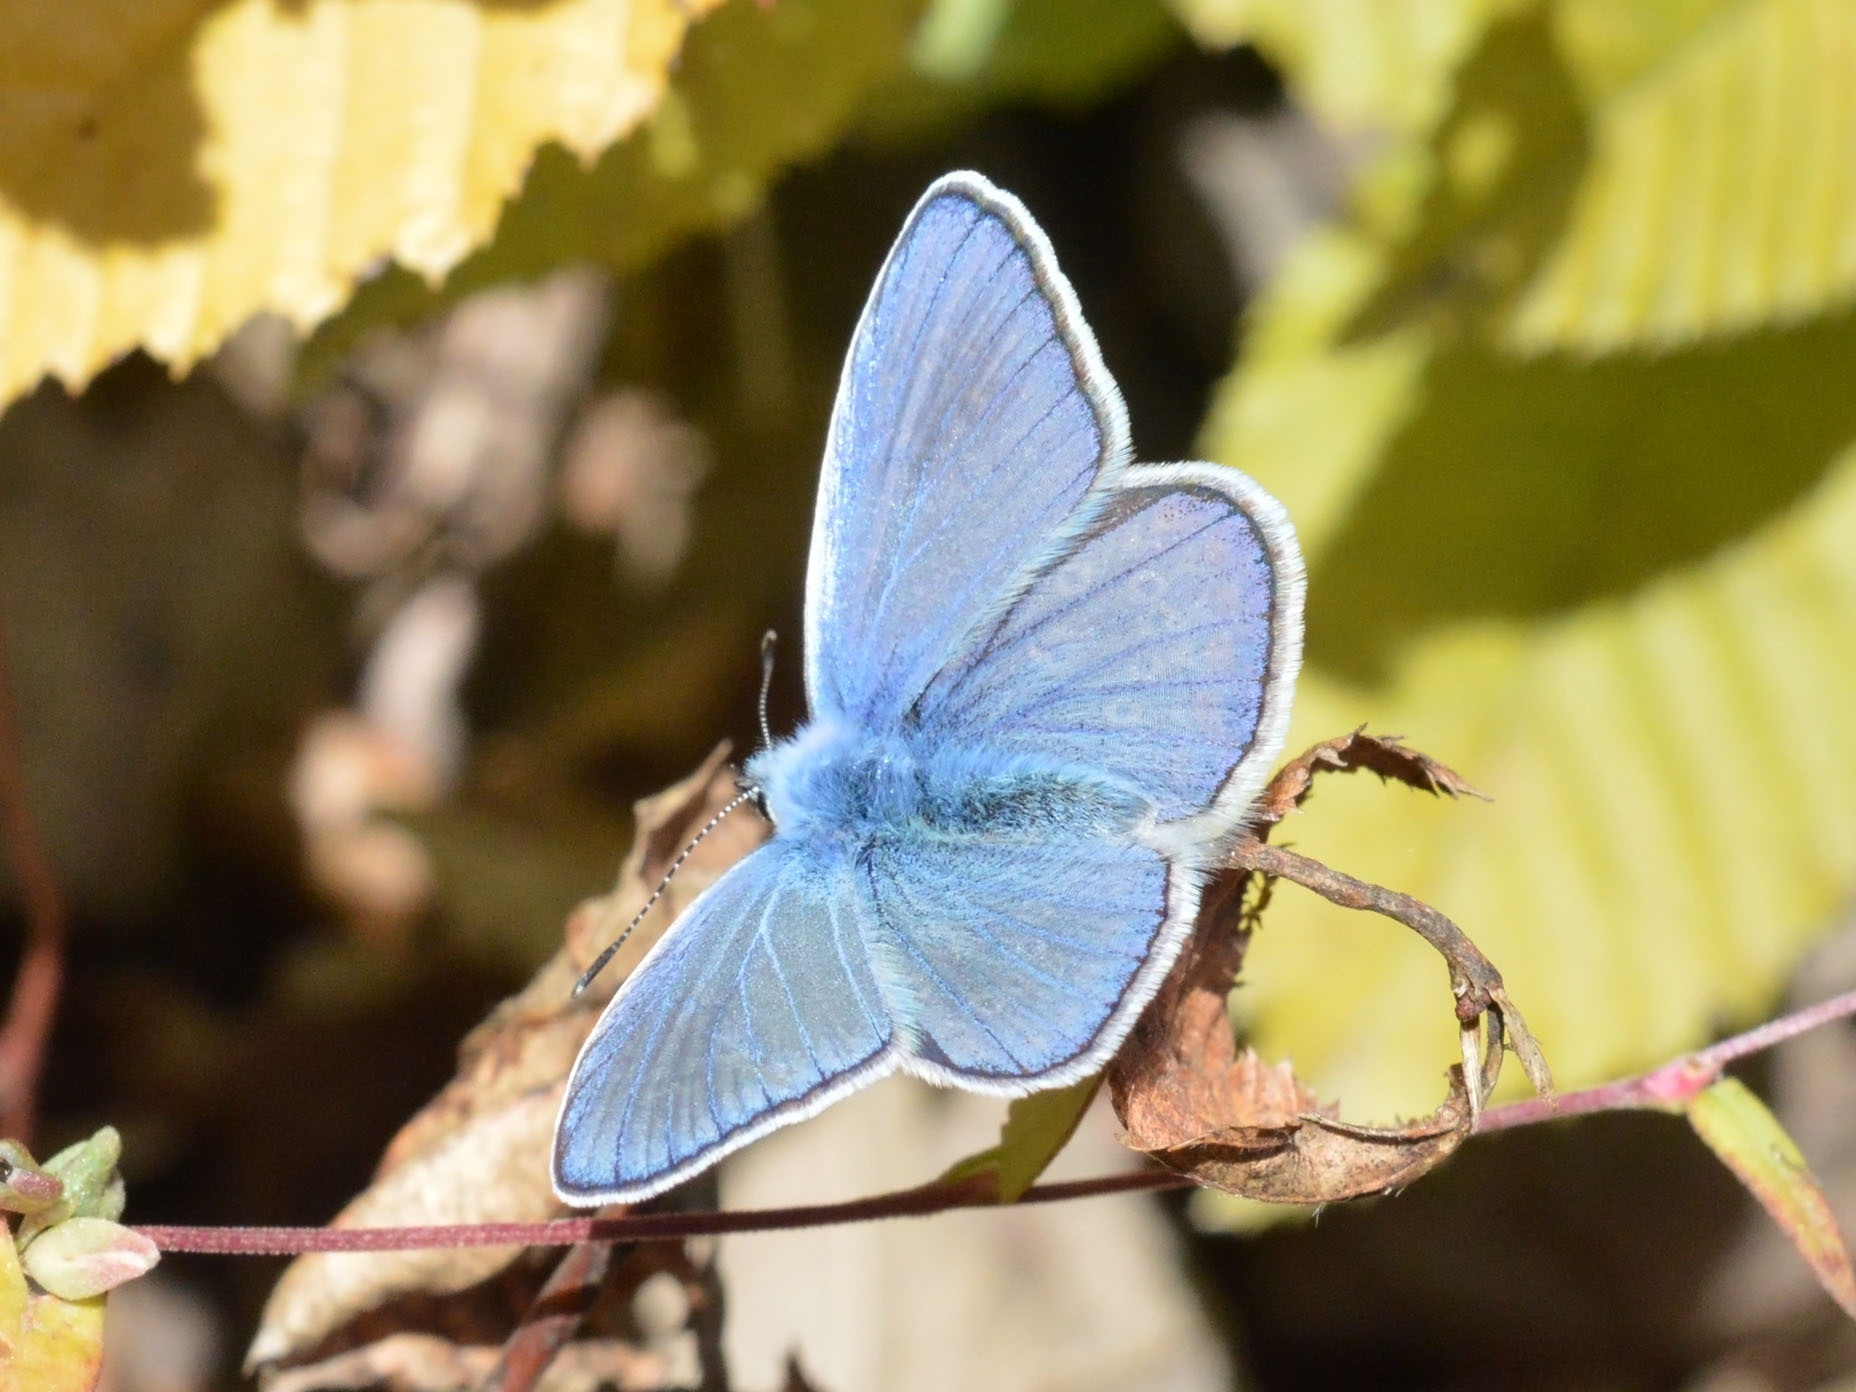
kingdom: Animalia
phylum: Arthropoda
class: Insecta
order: Lepidoptera
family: Lycaenidae
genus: Polyommatus
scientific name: Polyommatus icarus
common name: Common blue
